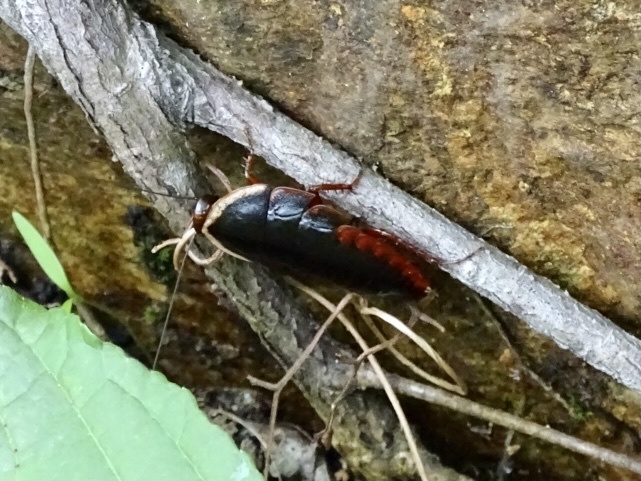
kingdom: Animalia
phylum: Arthropoda
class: Insecta
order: Blattodea
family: Blaberidae
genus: Opisthoplatia
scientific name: Opisthoplatia orientalis
